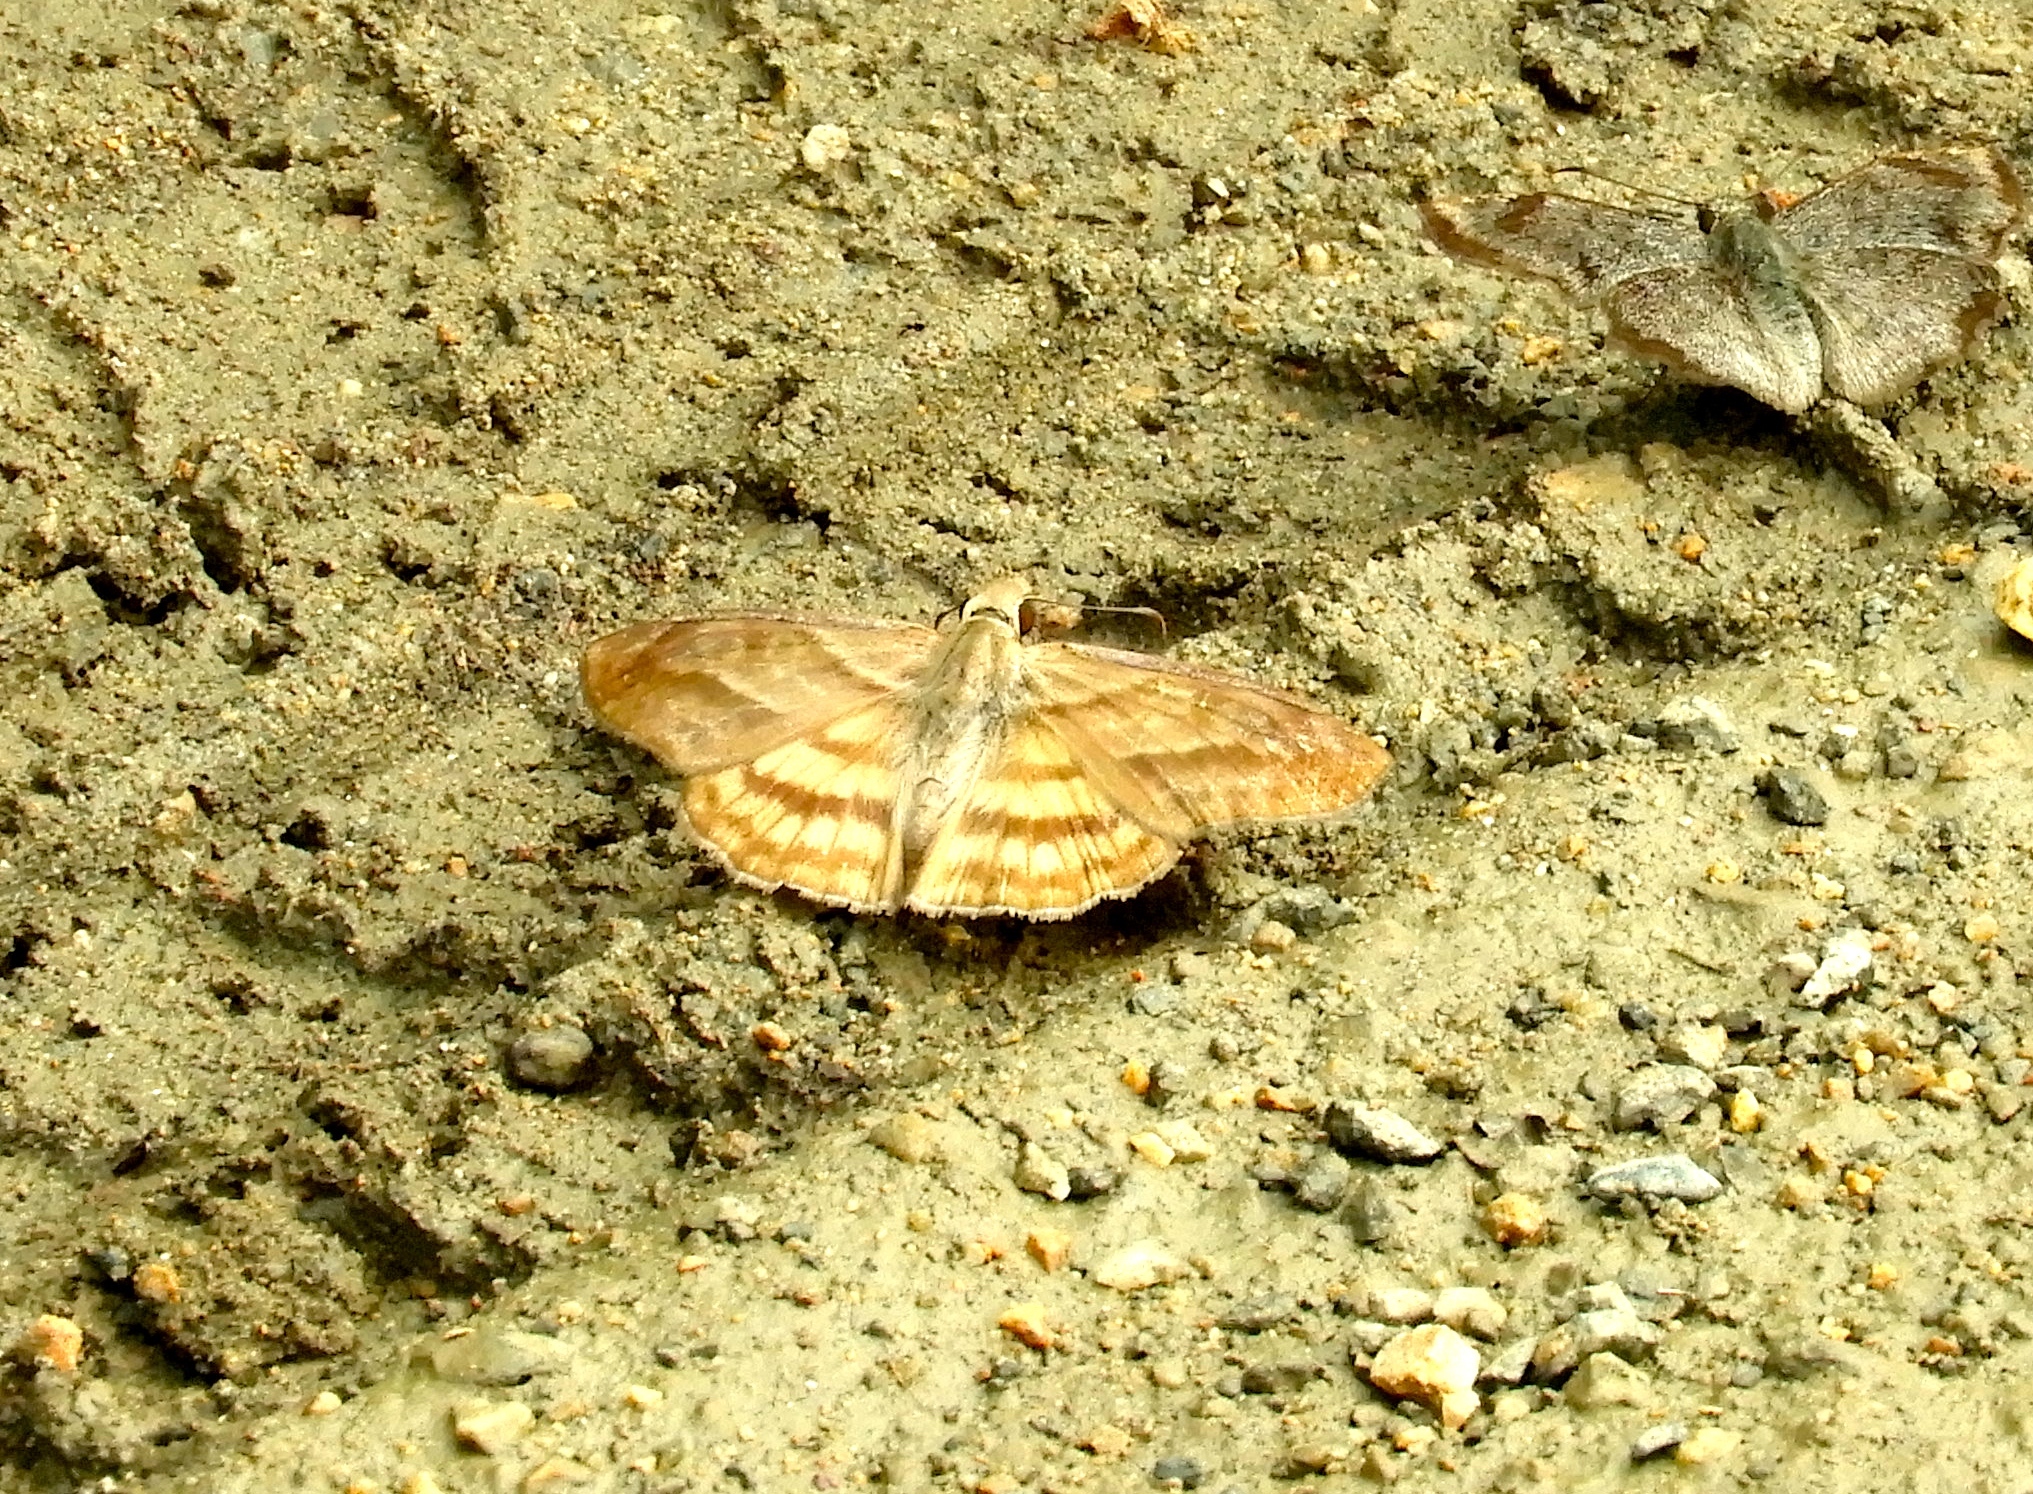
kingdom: Animalia
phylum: Arthropoda
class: Insecta
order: Lepidoptera
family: Hesperiidae
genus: Timochares
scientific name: Timochares trifasciata
